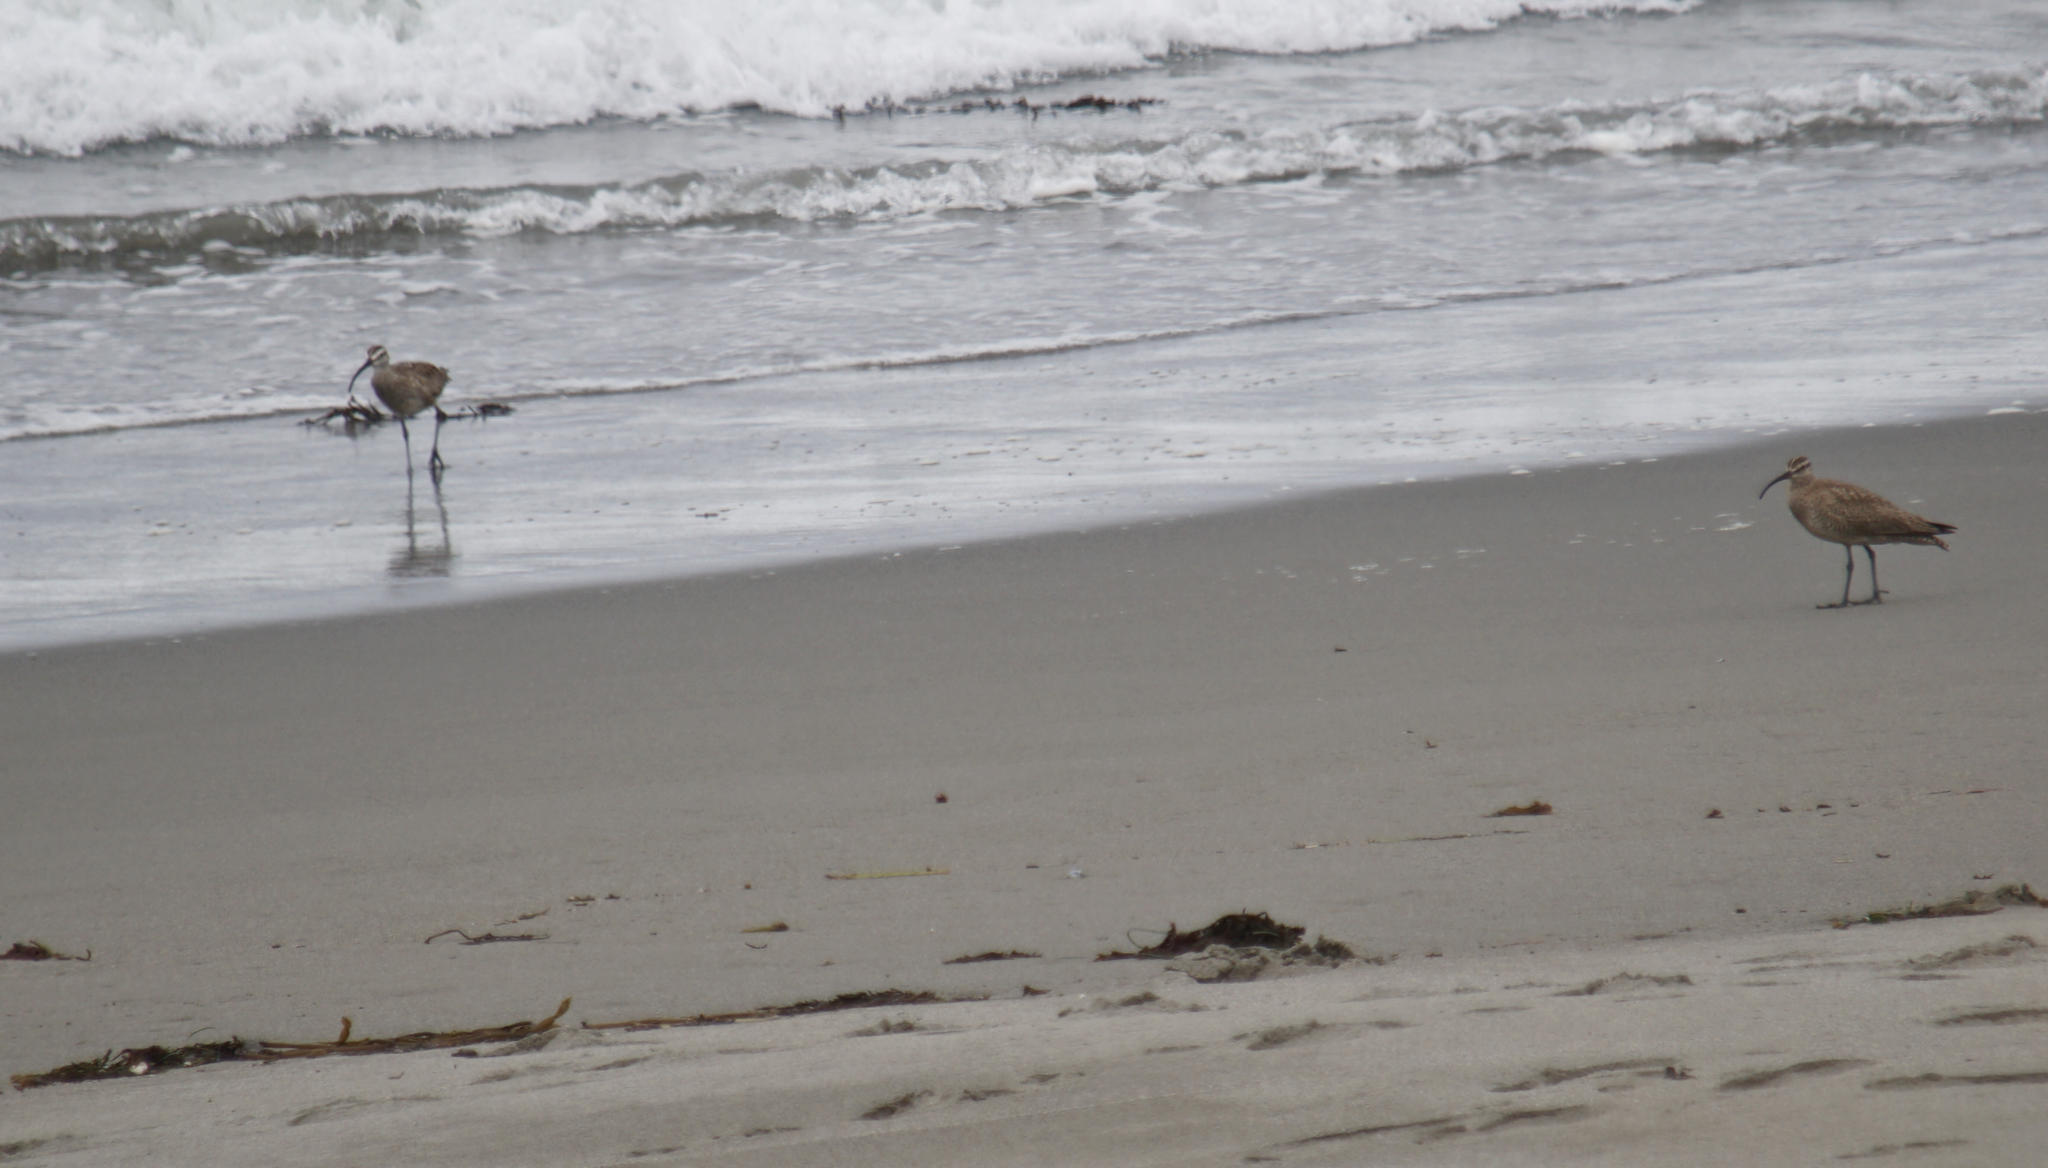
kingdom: Animalia
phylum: Chordata
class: Aves
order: Charadriiformes
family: Scolopacidae
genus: Numenius
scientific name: Numenius phaeopus
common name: Whimbrel
